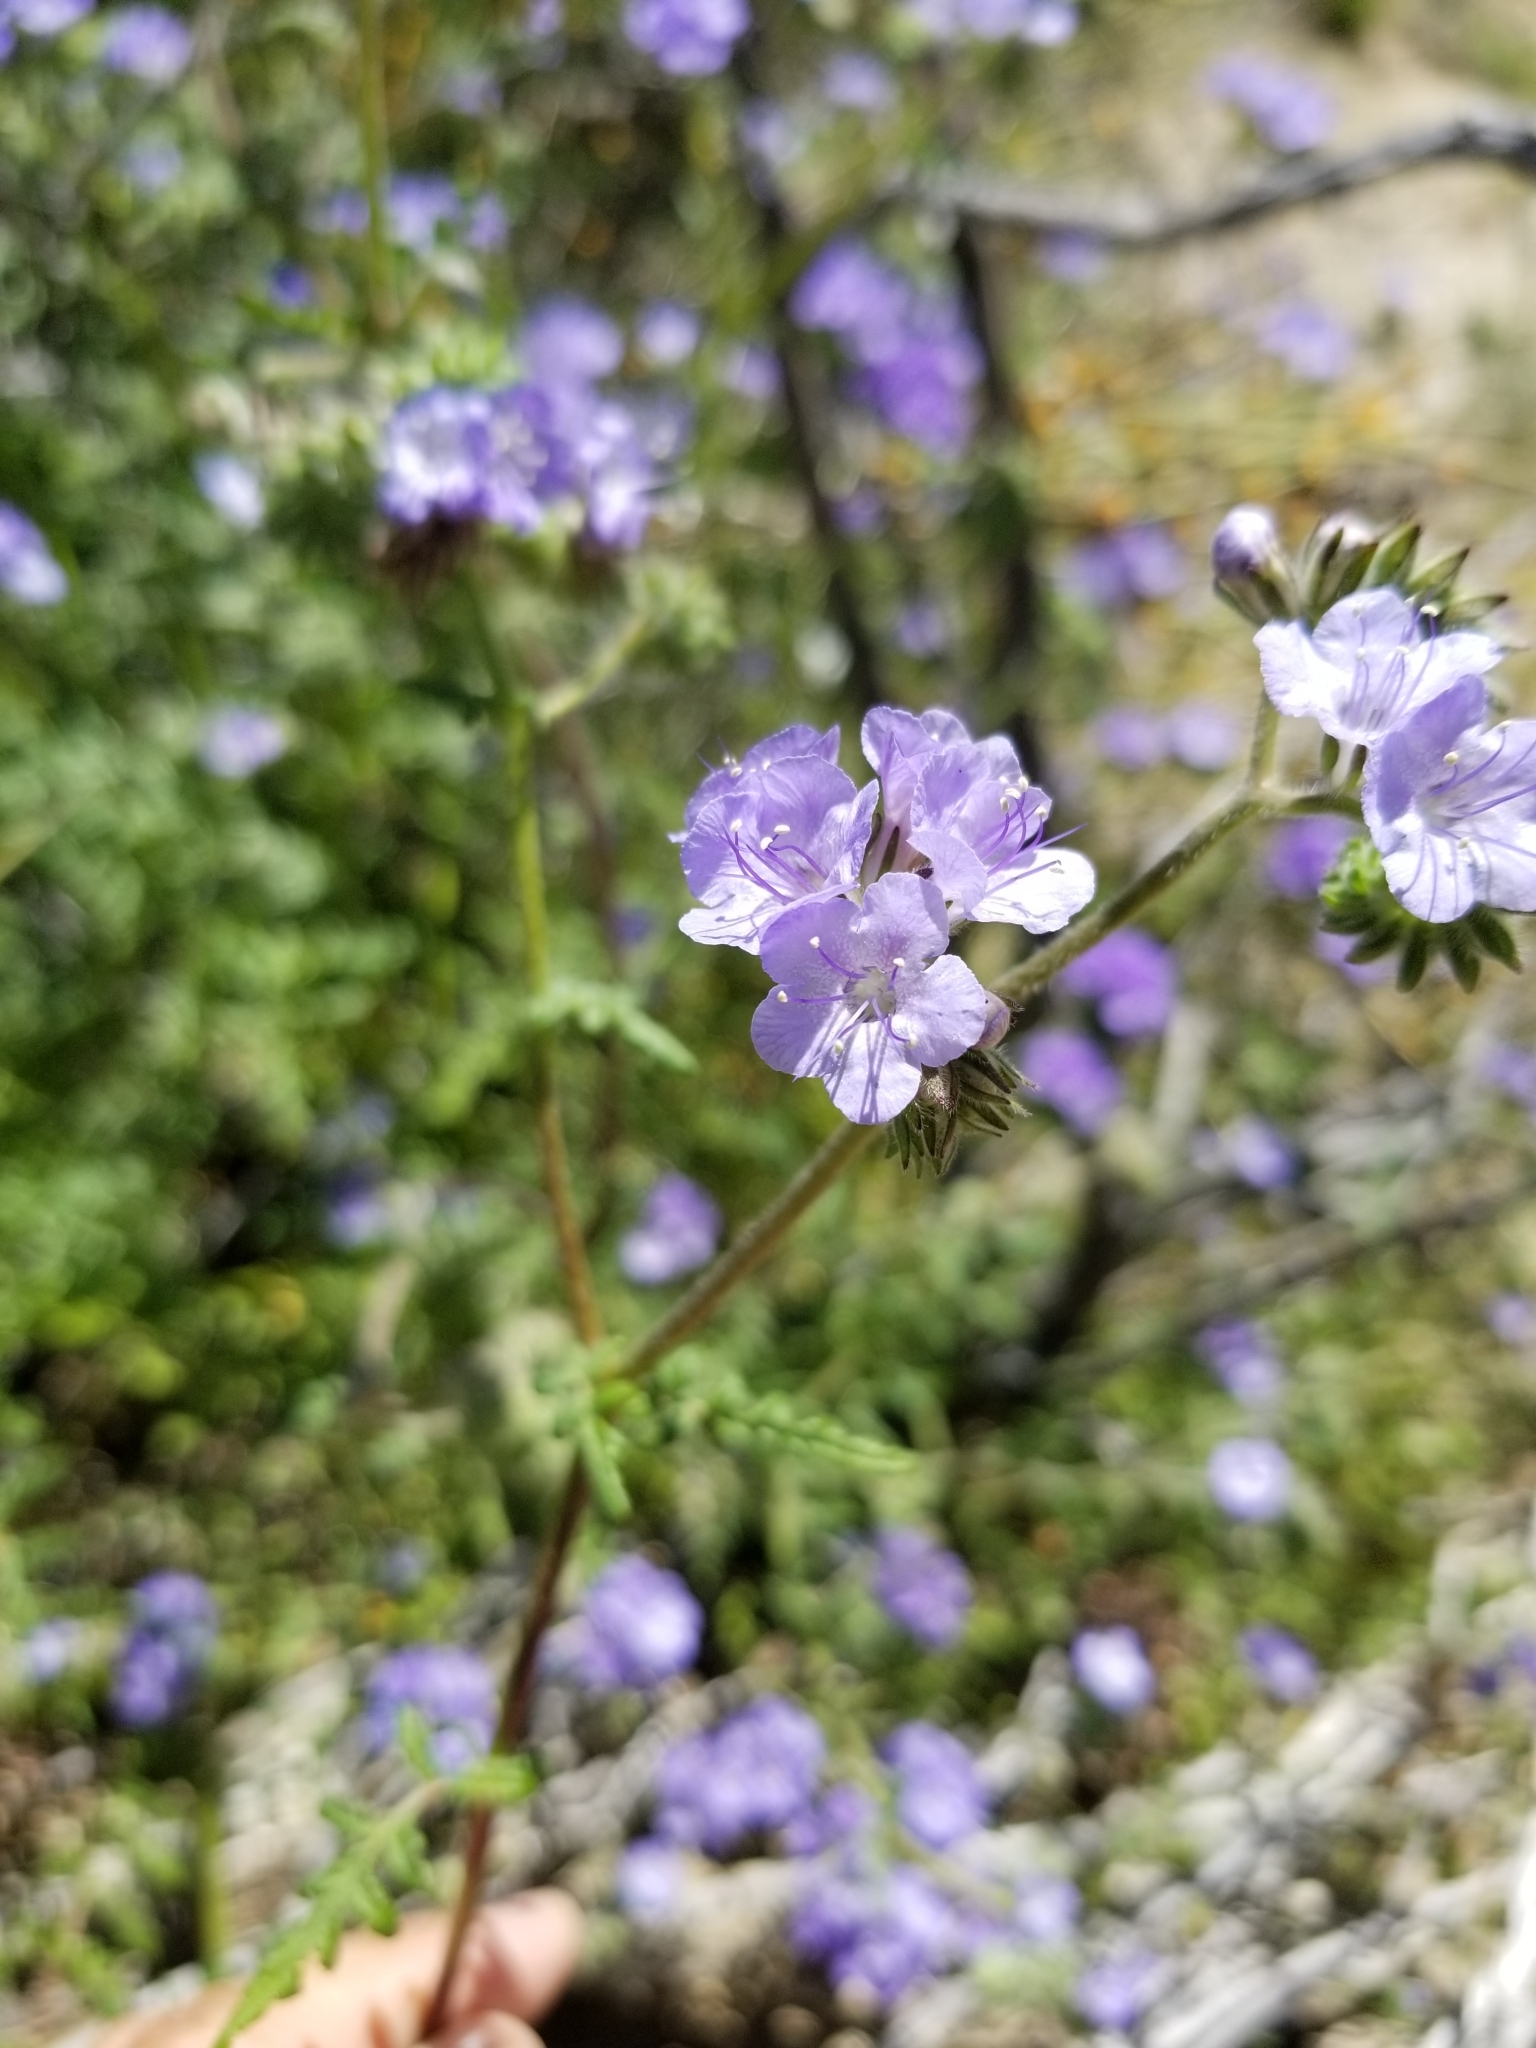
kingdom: Plantae
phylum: Tracheophyta
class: Magnoliopsida
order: Boraginales
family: Hydrophyllaceae
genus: Phacelia
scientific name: Phacelia distans
